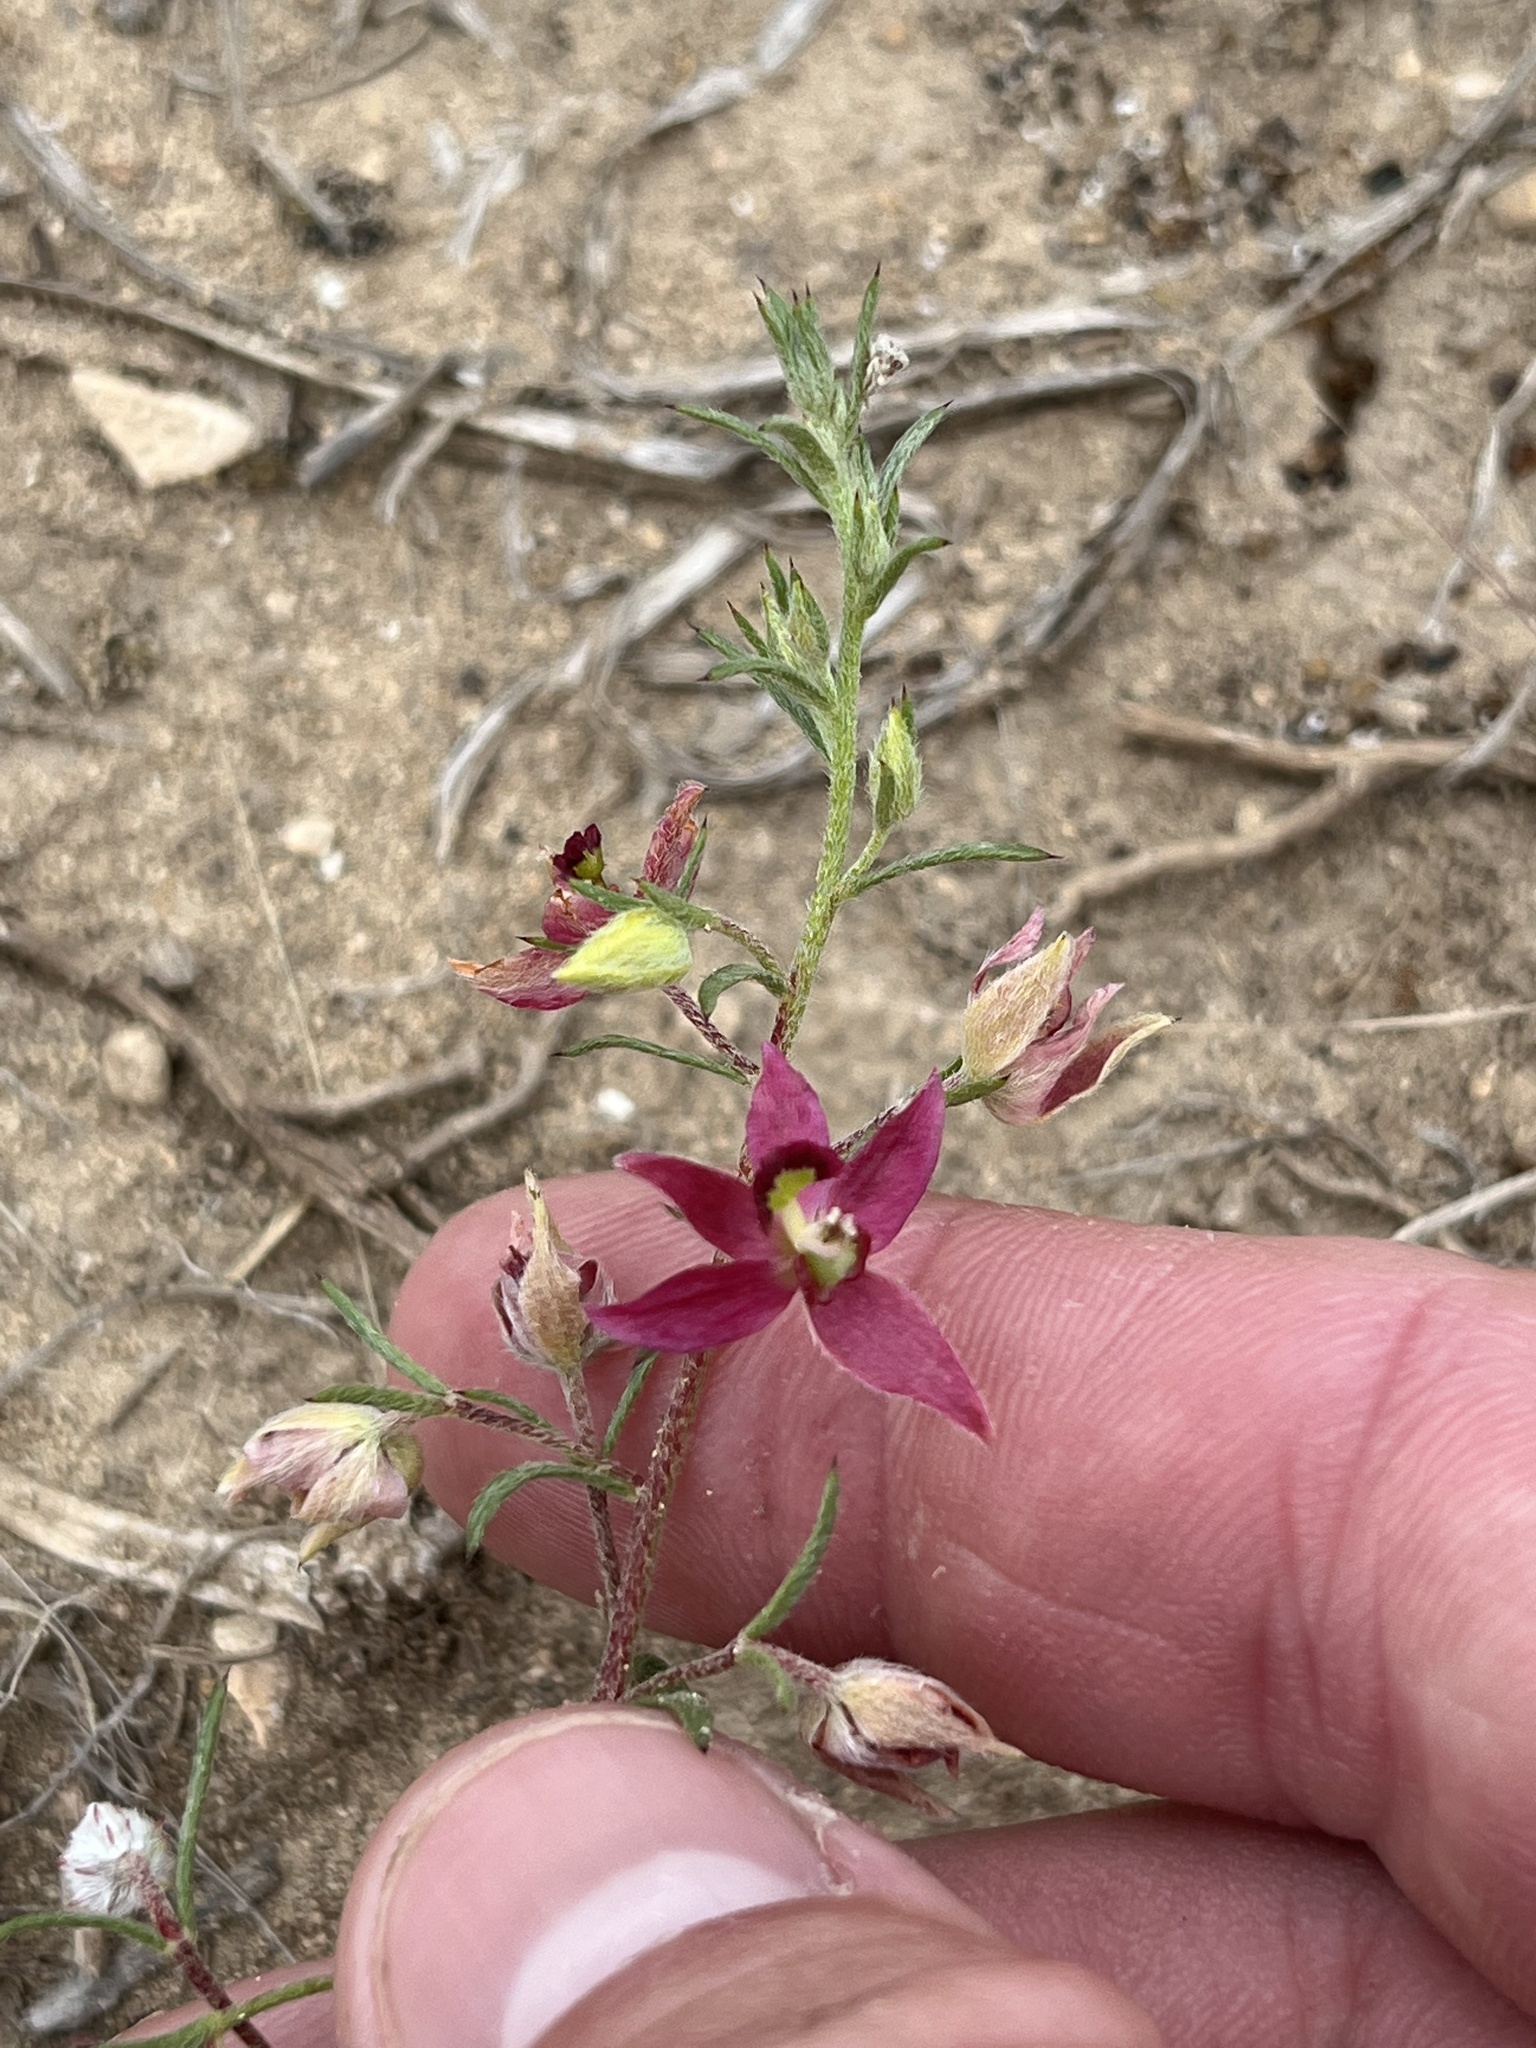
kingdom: Plantae
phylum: Tracheophyta
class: Magnoliopsida
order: Zygophyllales
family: Krameriaceae
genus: Krameria
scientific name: Krameria lanceolata
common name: Ratany
